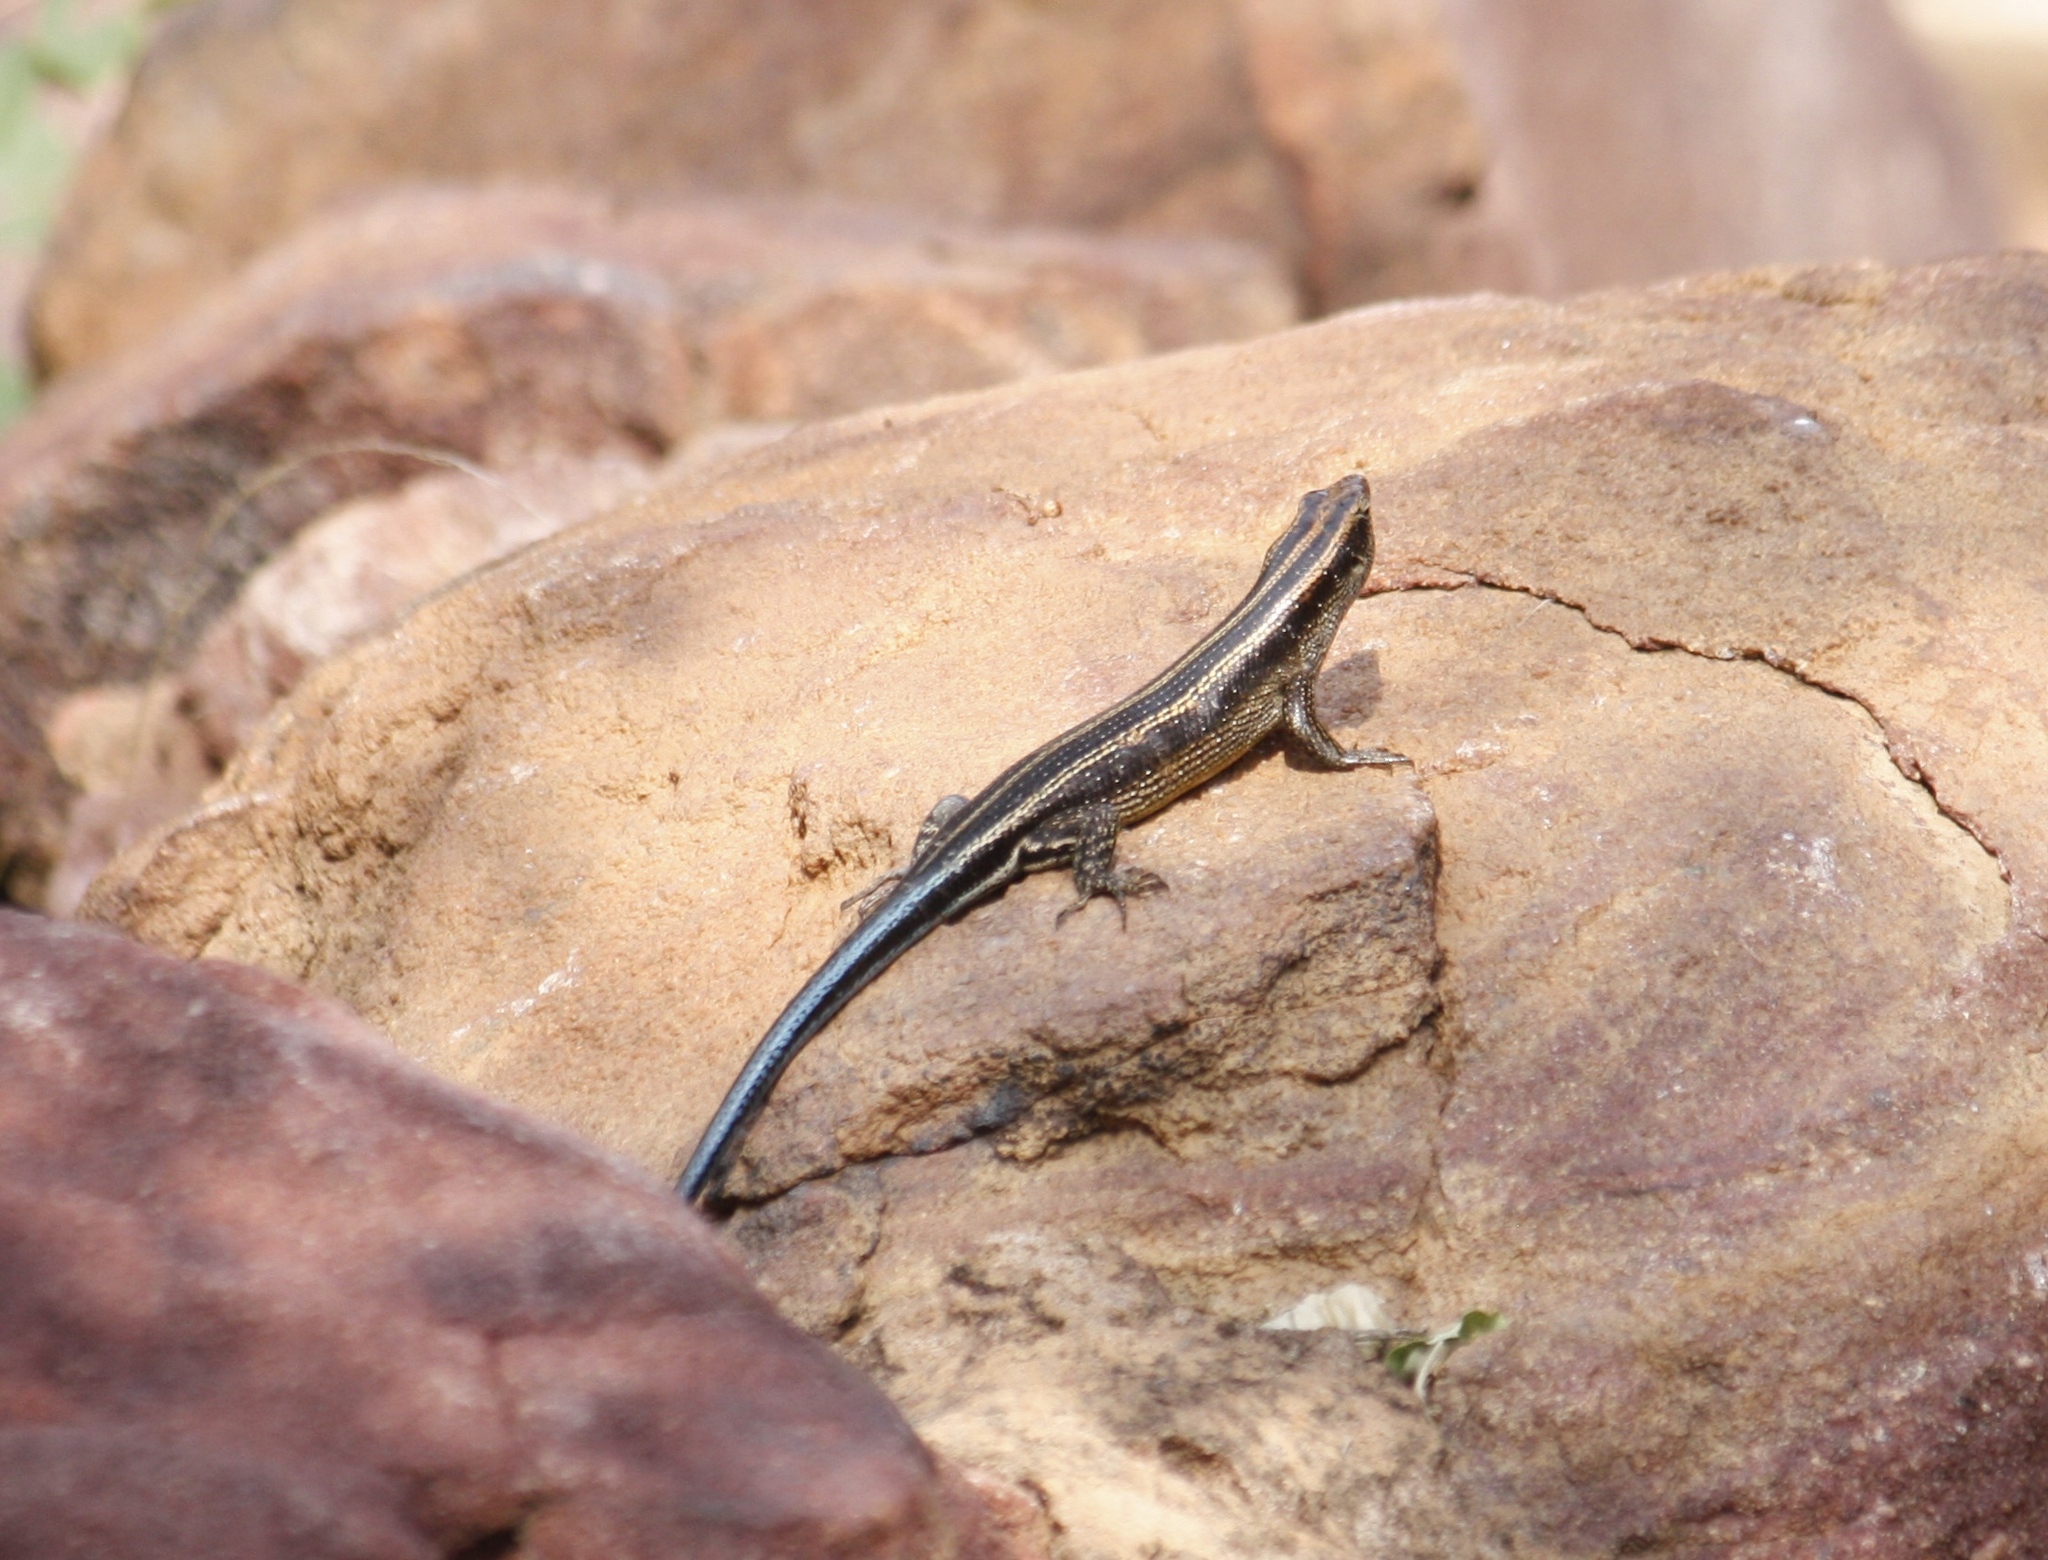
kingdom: Animalia
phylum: Chordata
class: Squamata
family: Scincidae
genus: Trachylepis
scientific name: Trachylepis margaritifera
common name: Rainbow skink
